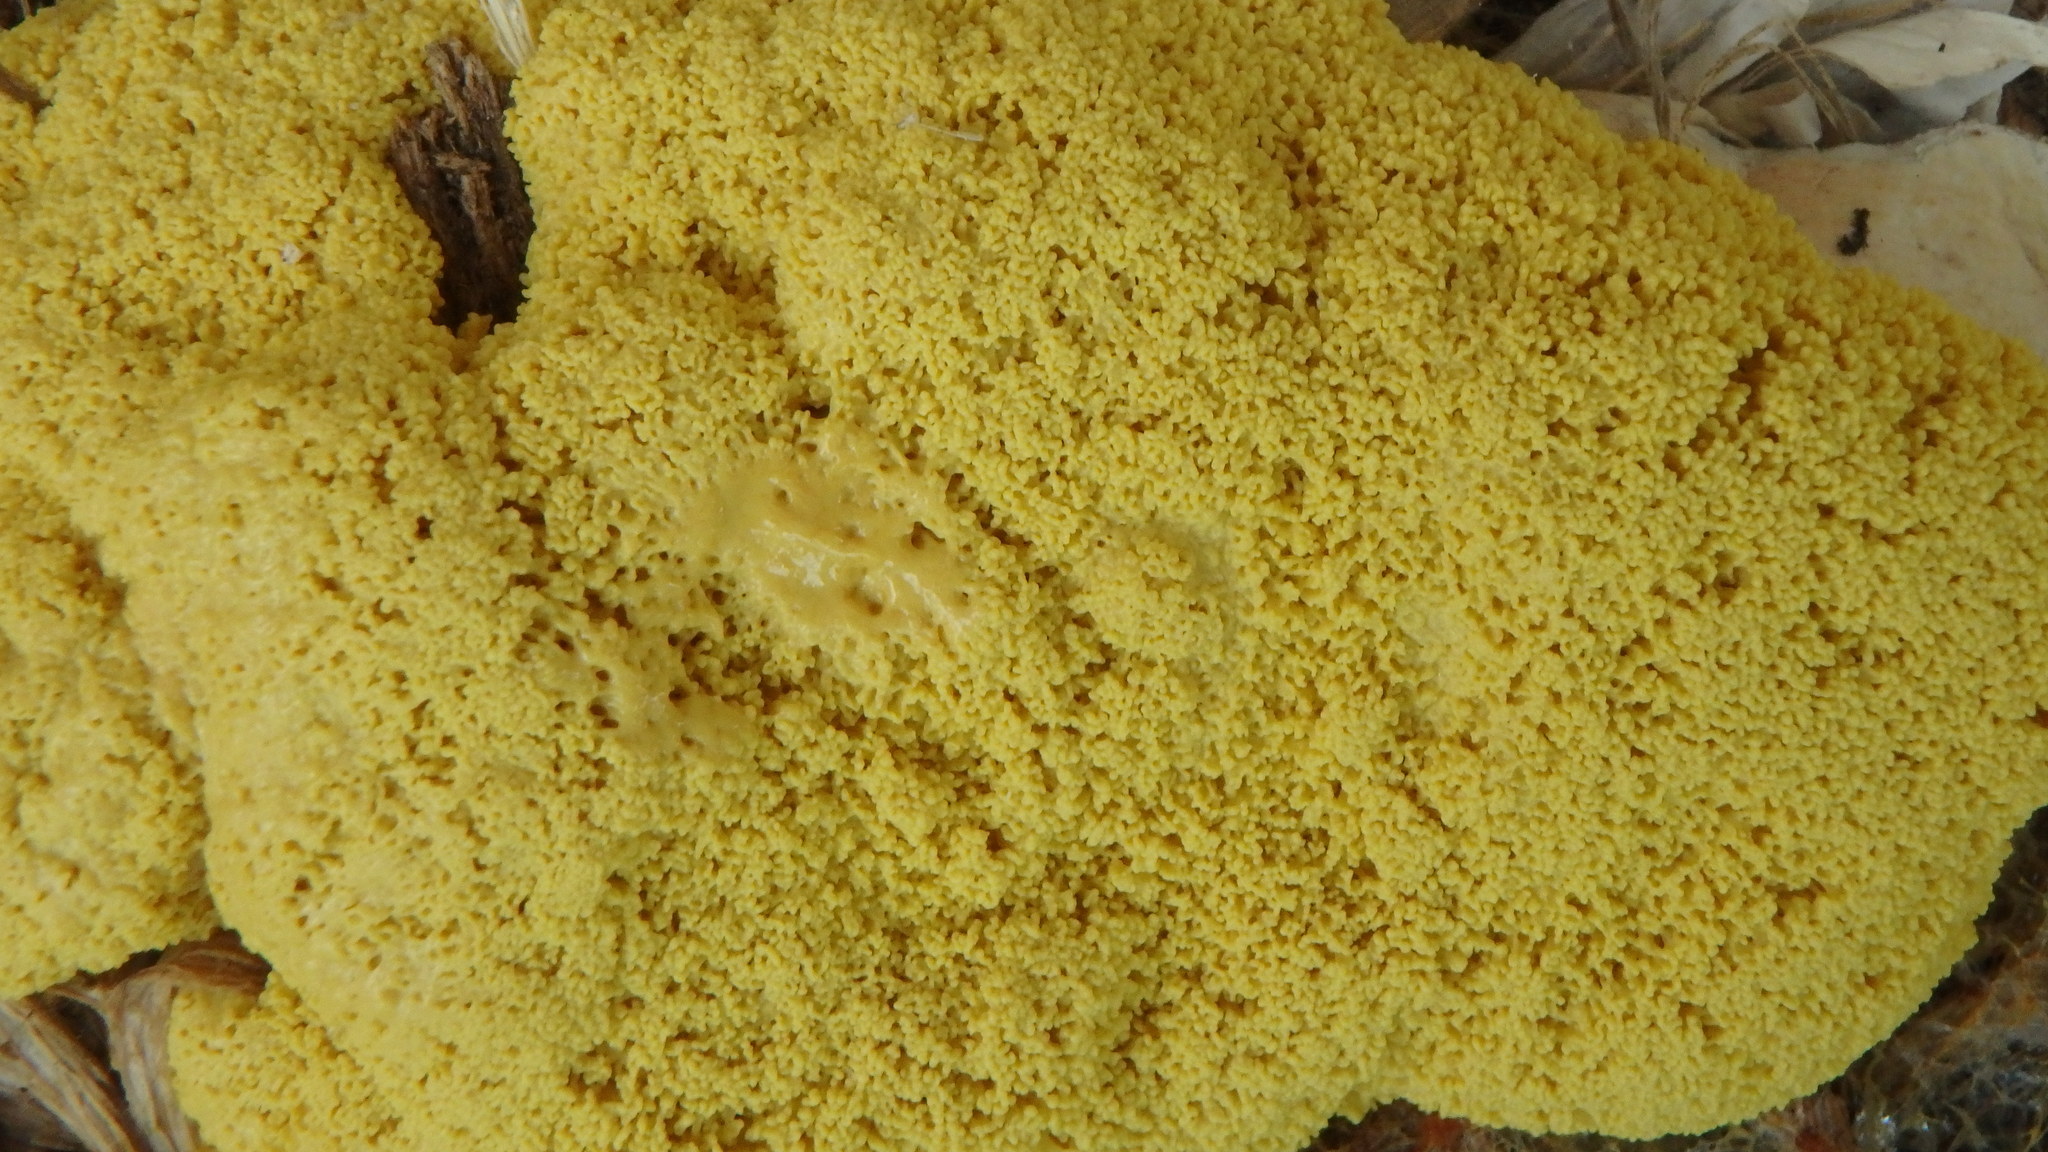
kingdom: Protozoa
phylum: Mycetozoa
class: Myxomycetes
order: Physarales
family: Physaraceae
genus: Fuligo
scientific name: Fuligo septica
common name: Dog vomit slime mold
